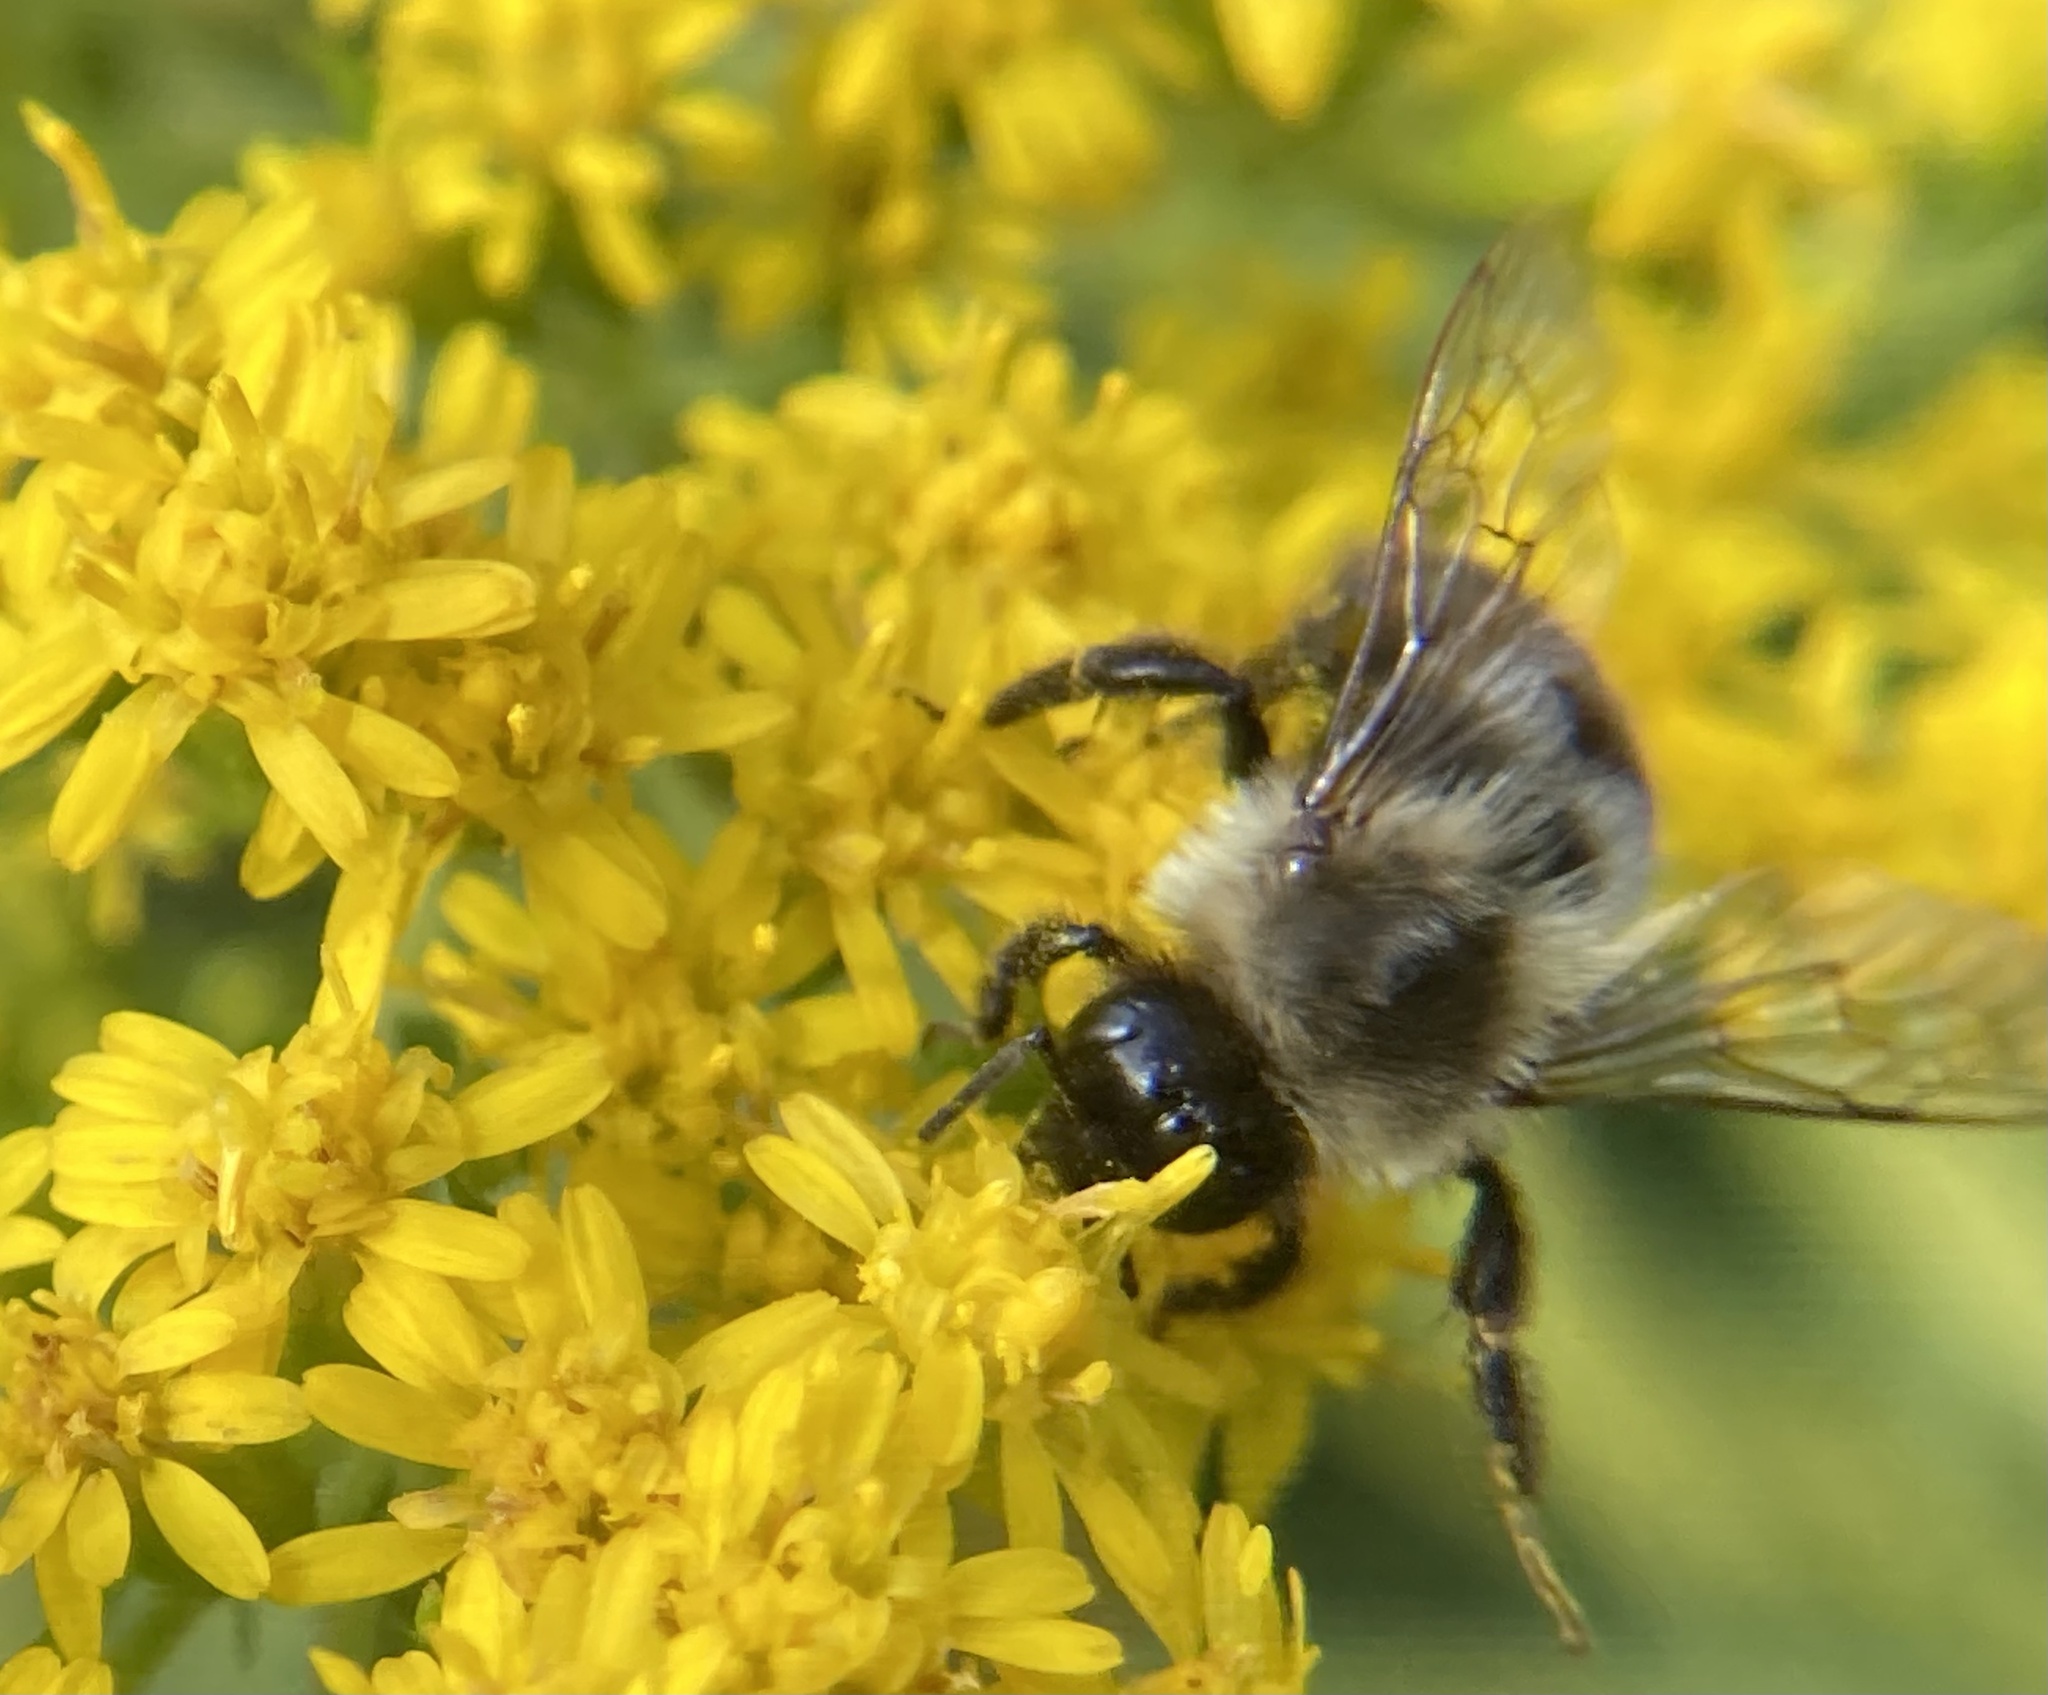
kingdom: Animalia
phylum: Arthropoda
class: Insecta
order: Hymenoptera
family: Apidae
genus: Bombus
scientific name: Bombus impatiens
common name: Common eastern bumble bee
